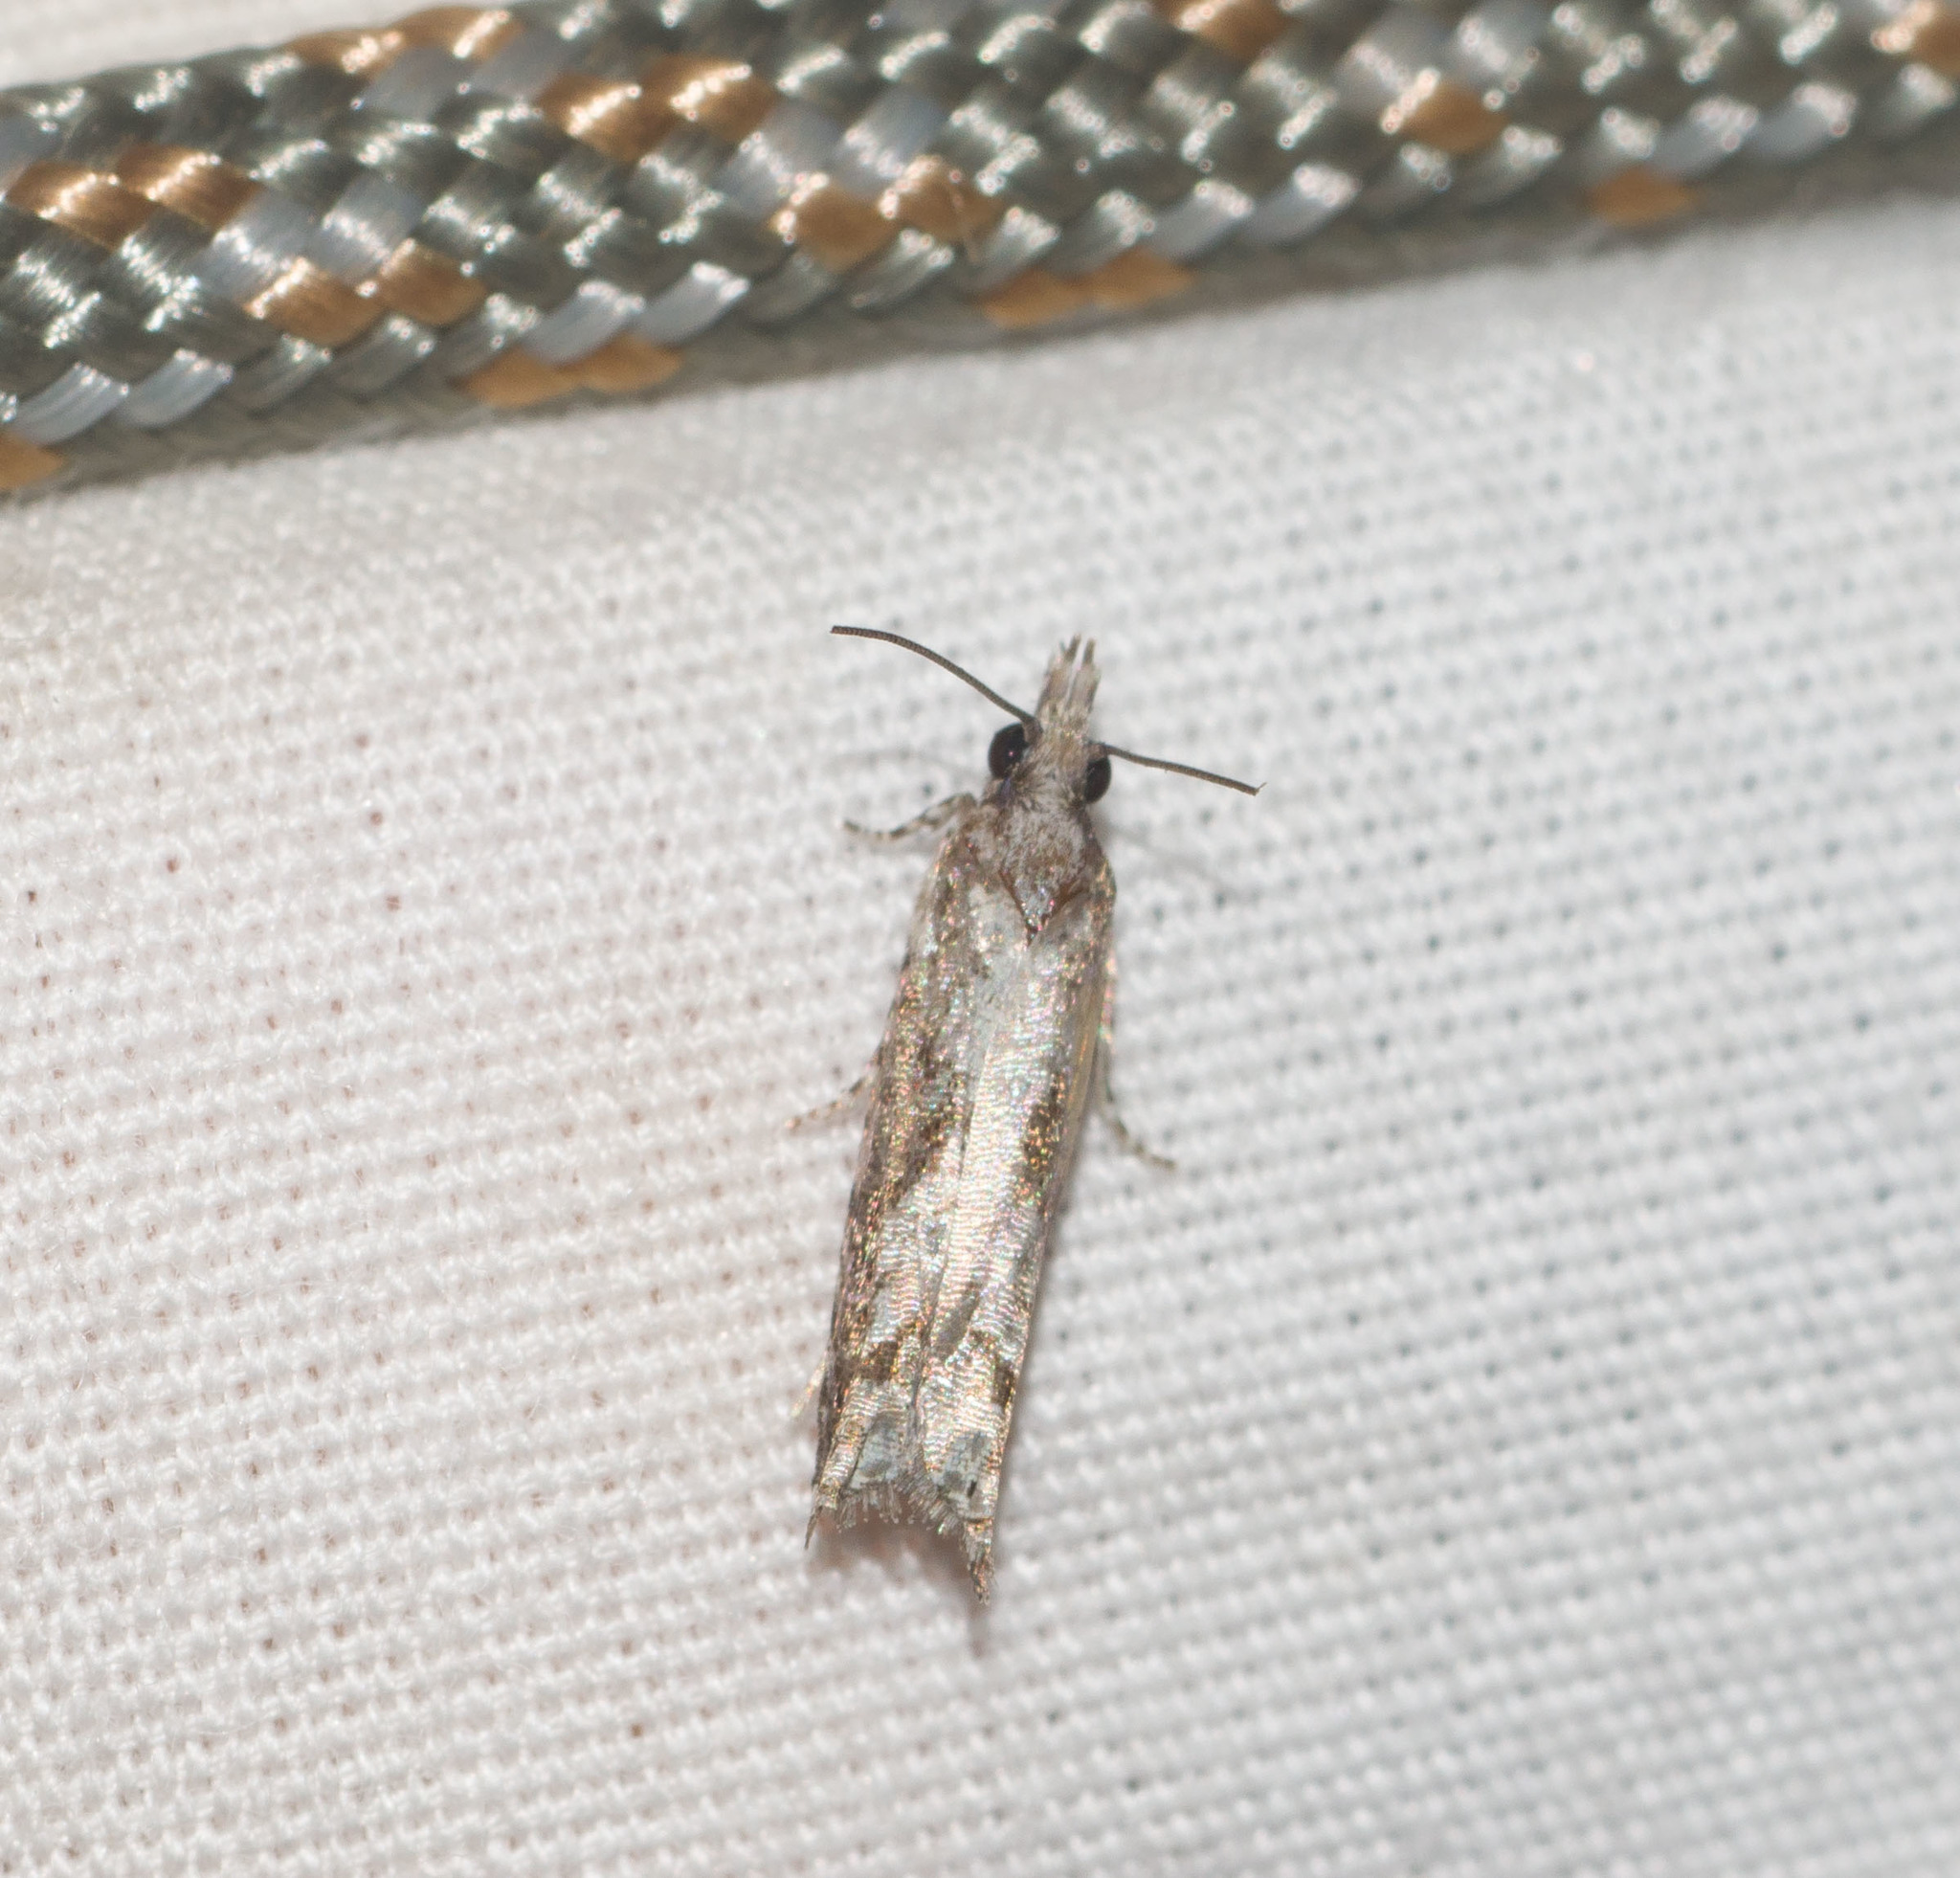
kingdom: Animalia
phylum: Arthropoda
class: Insecta
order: Lepidoptera
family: Tortricidae
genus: Eccoptocera
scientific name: Eccoptocera foetorivorans
